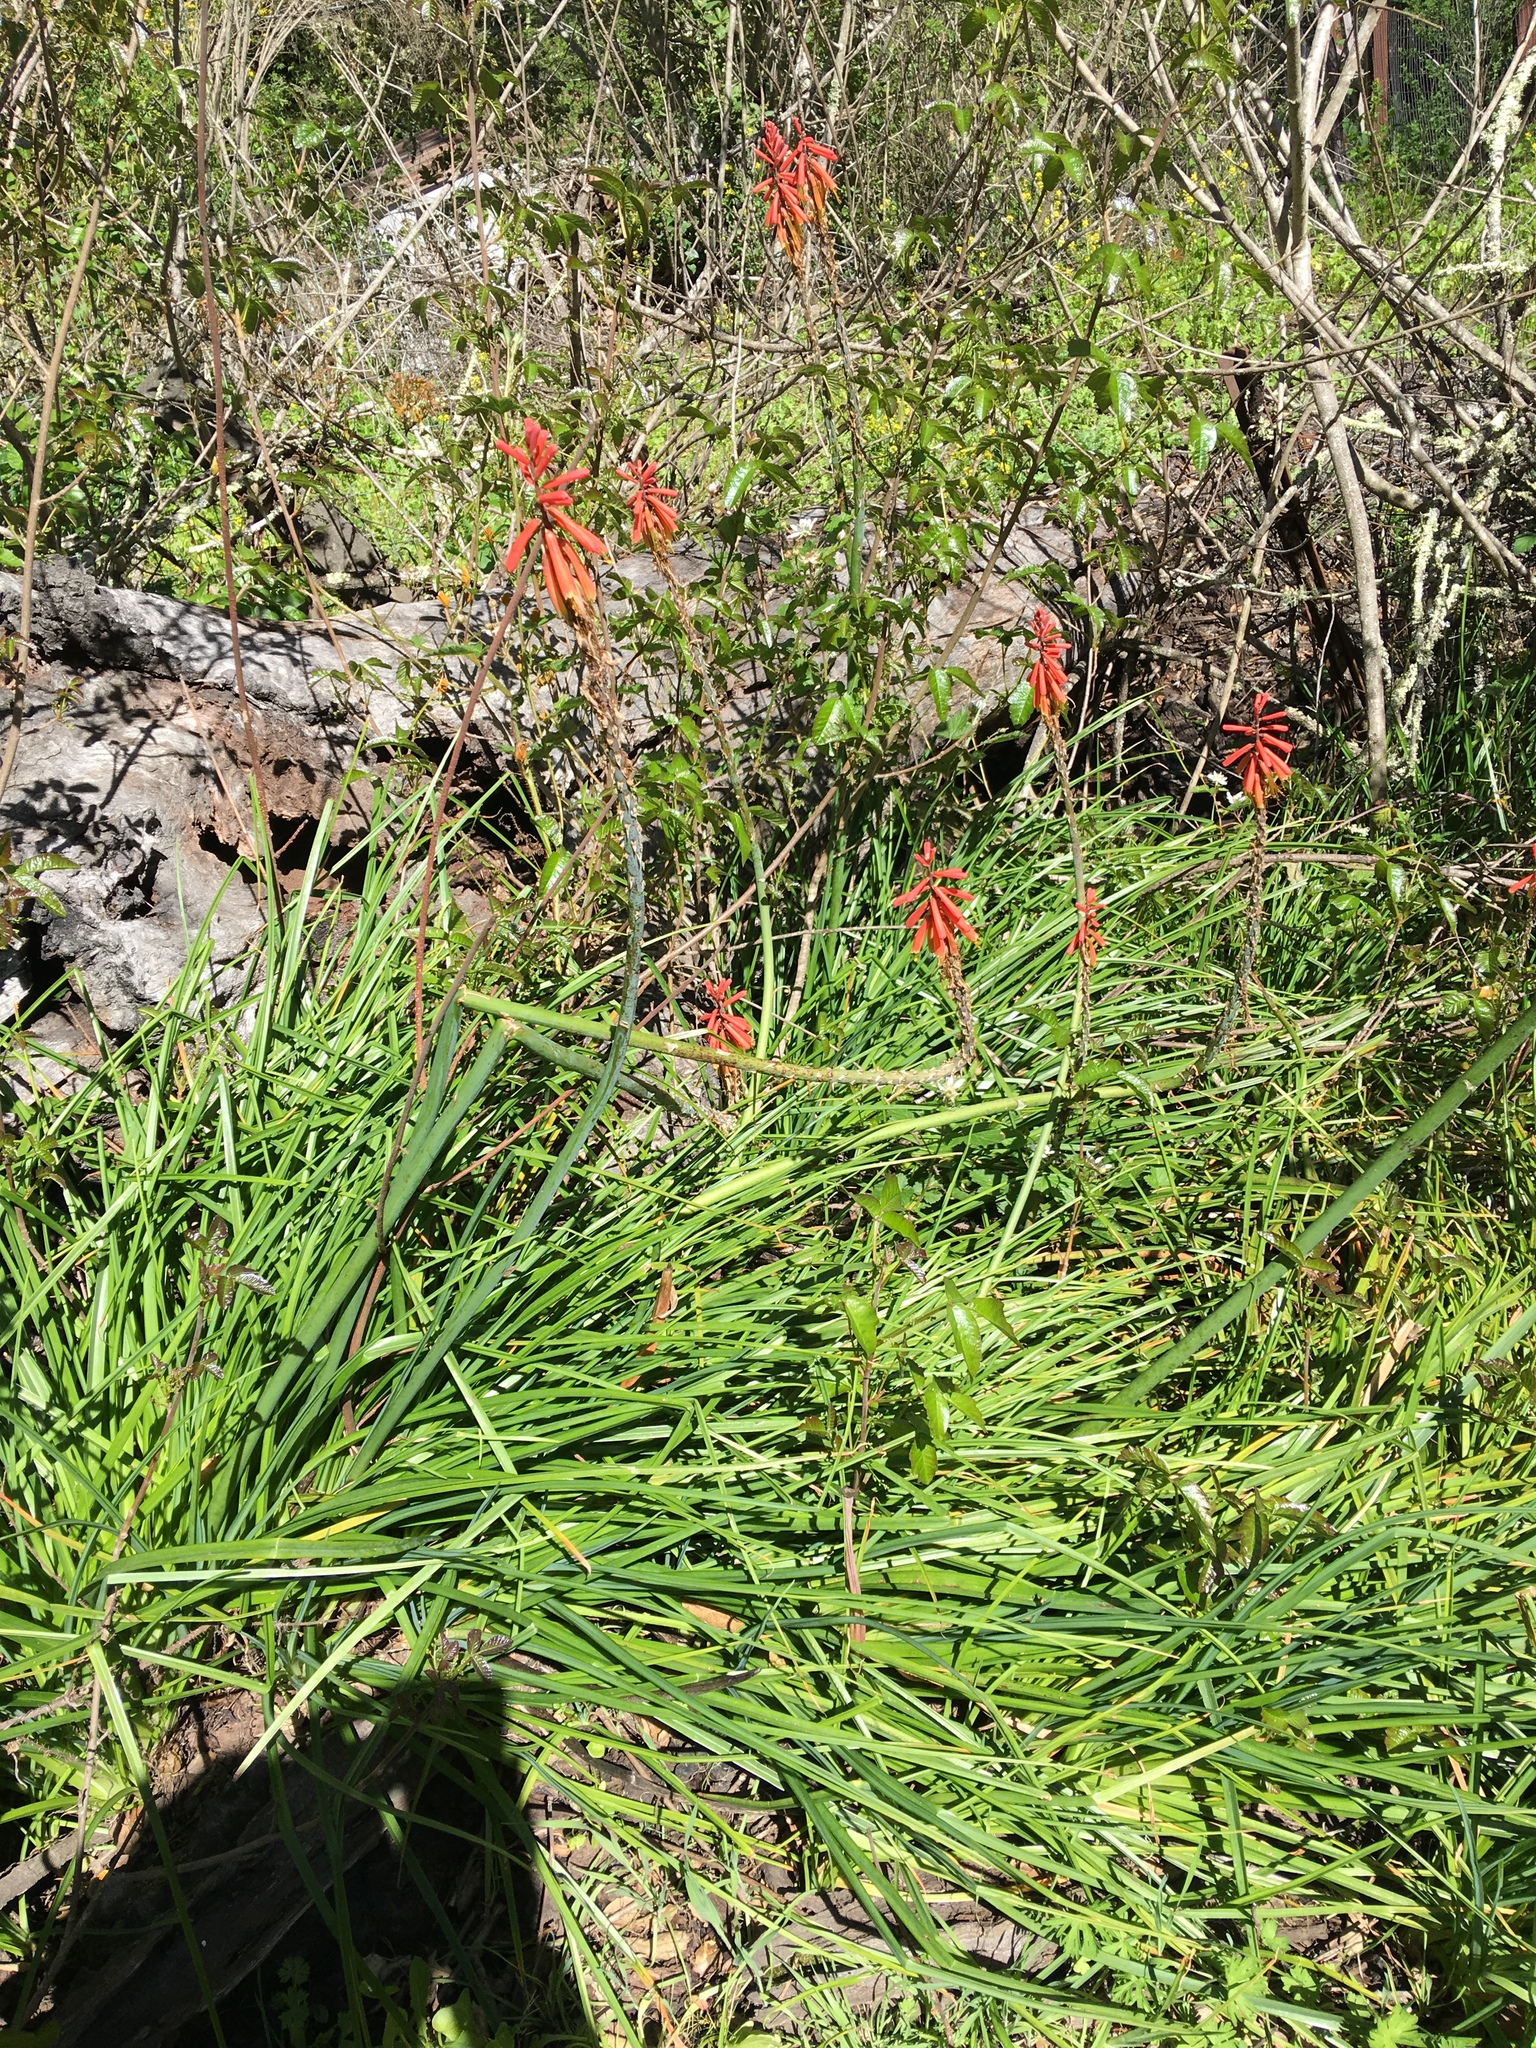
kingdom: Plantae
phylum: Tracheophyta
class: Liliopsida
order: Asparagales
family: Asphodelaceae
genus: Kniphofia
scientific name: Kniphofia uvaria
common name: Red-hot-poker
